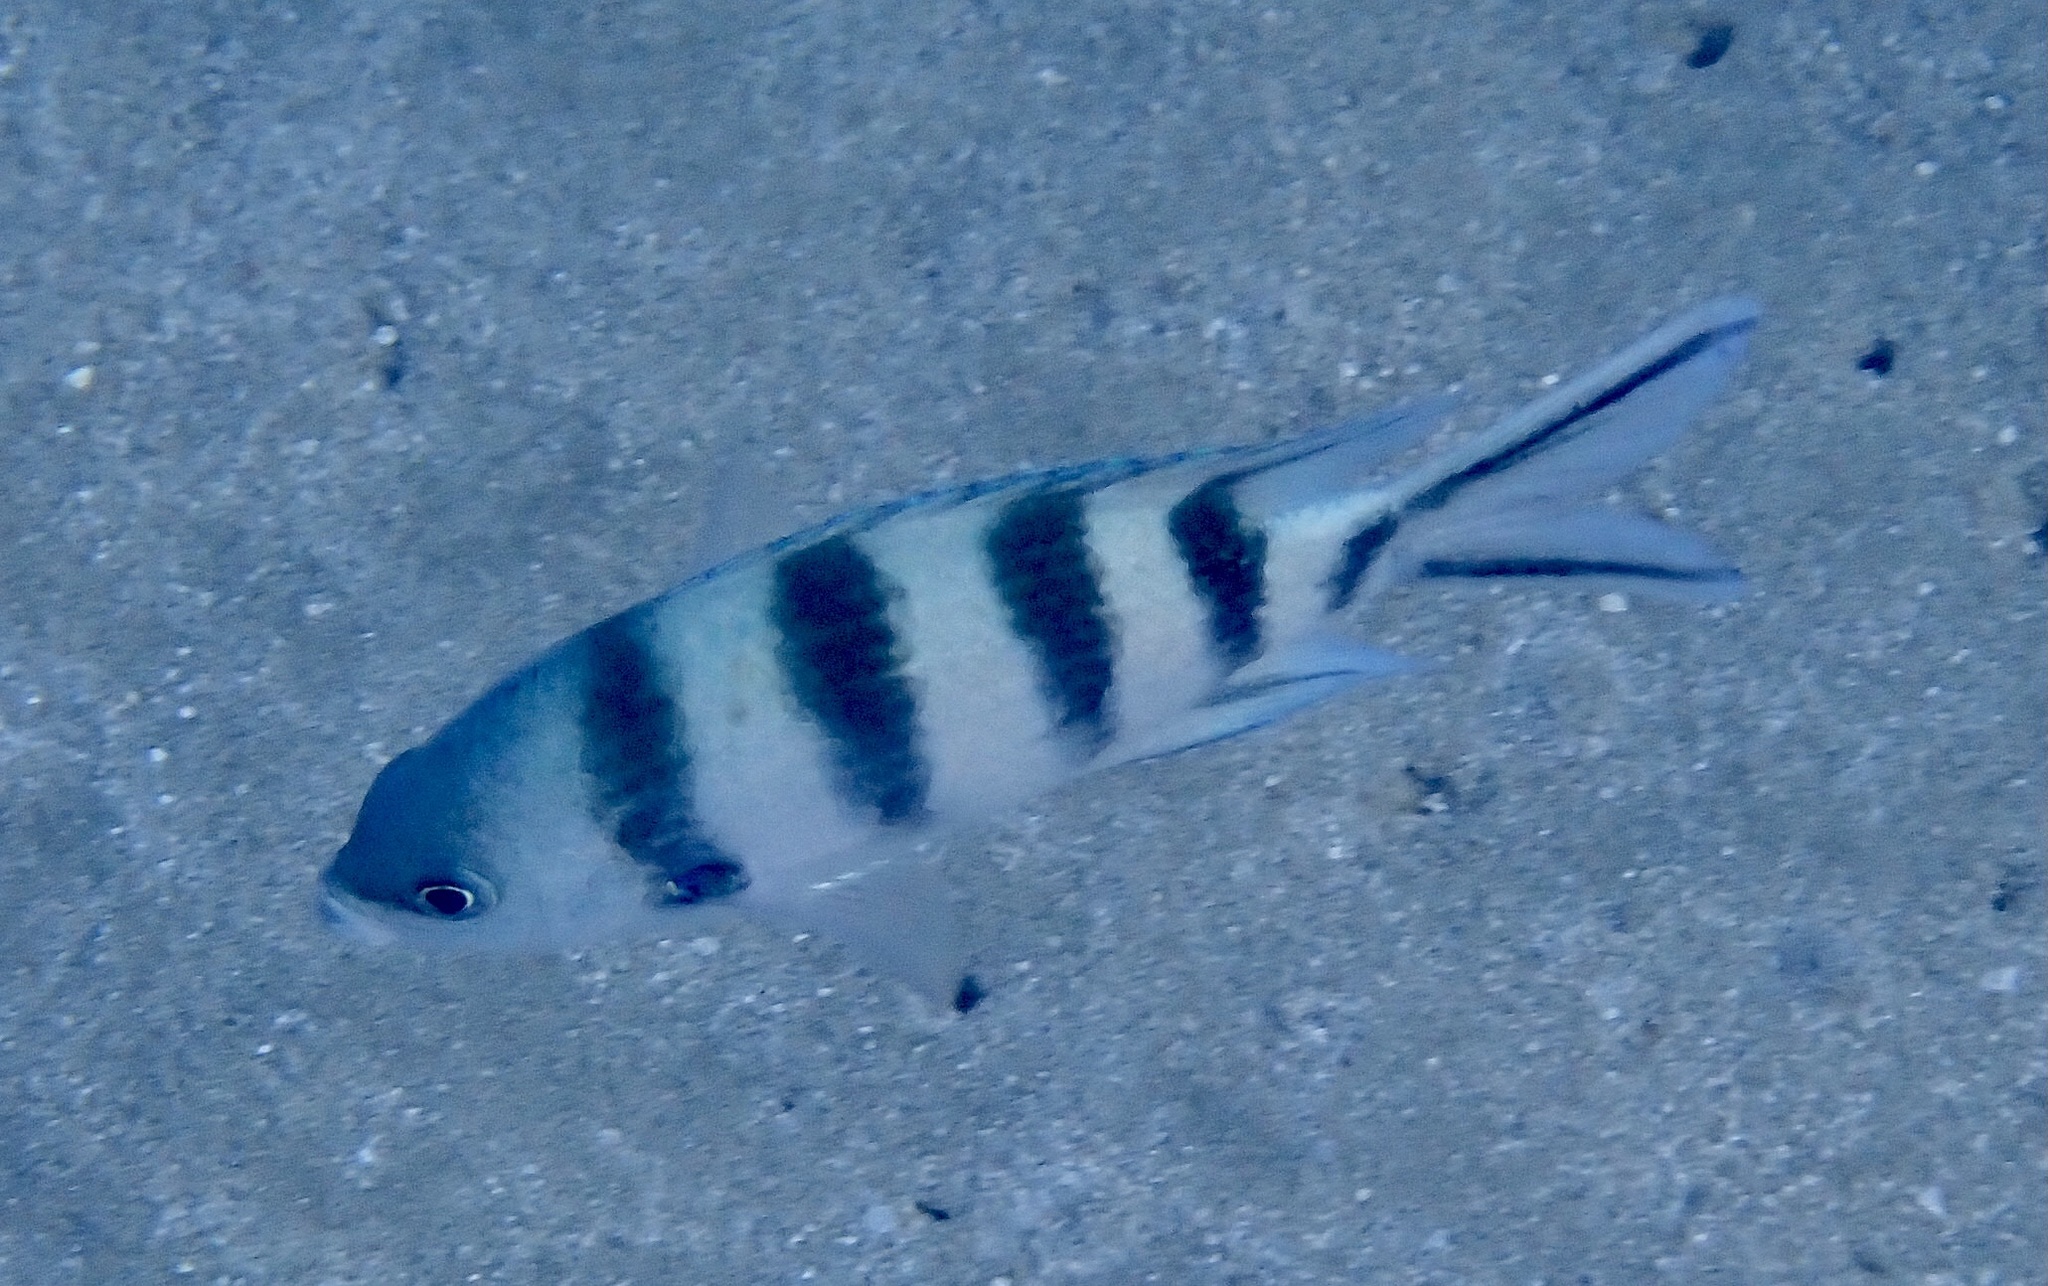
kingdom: Animalia
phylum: Chordata
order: Perciformes
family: Pomacentridae
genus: Abudefduf
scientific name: Abudefduf sexfasciatus
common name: Scissortail sergeant
